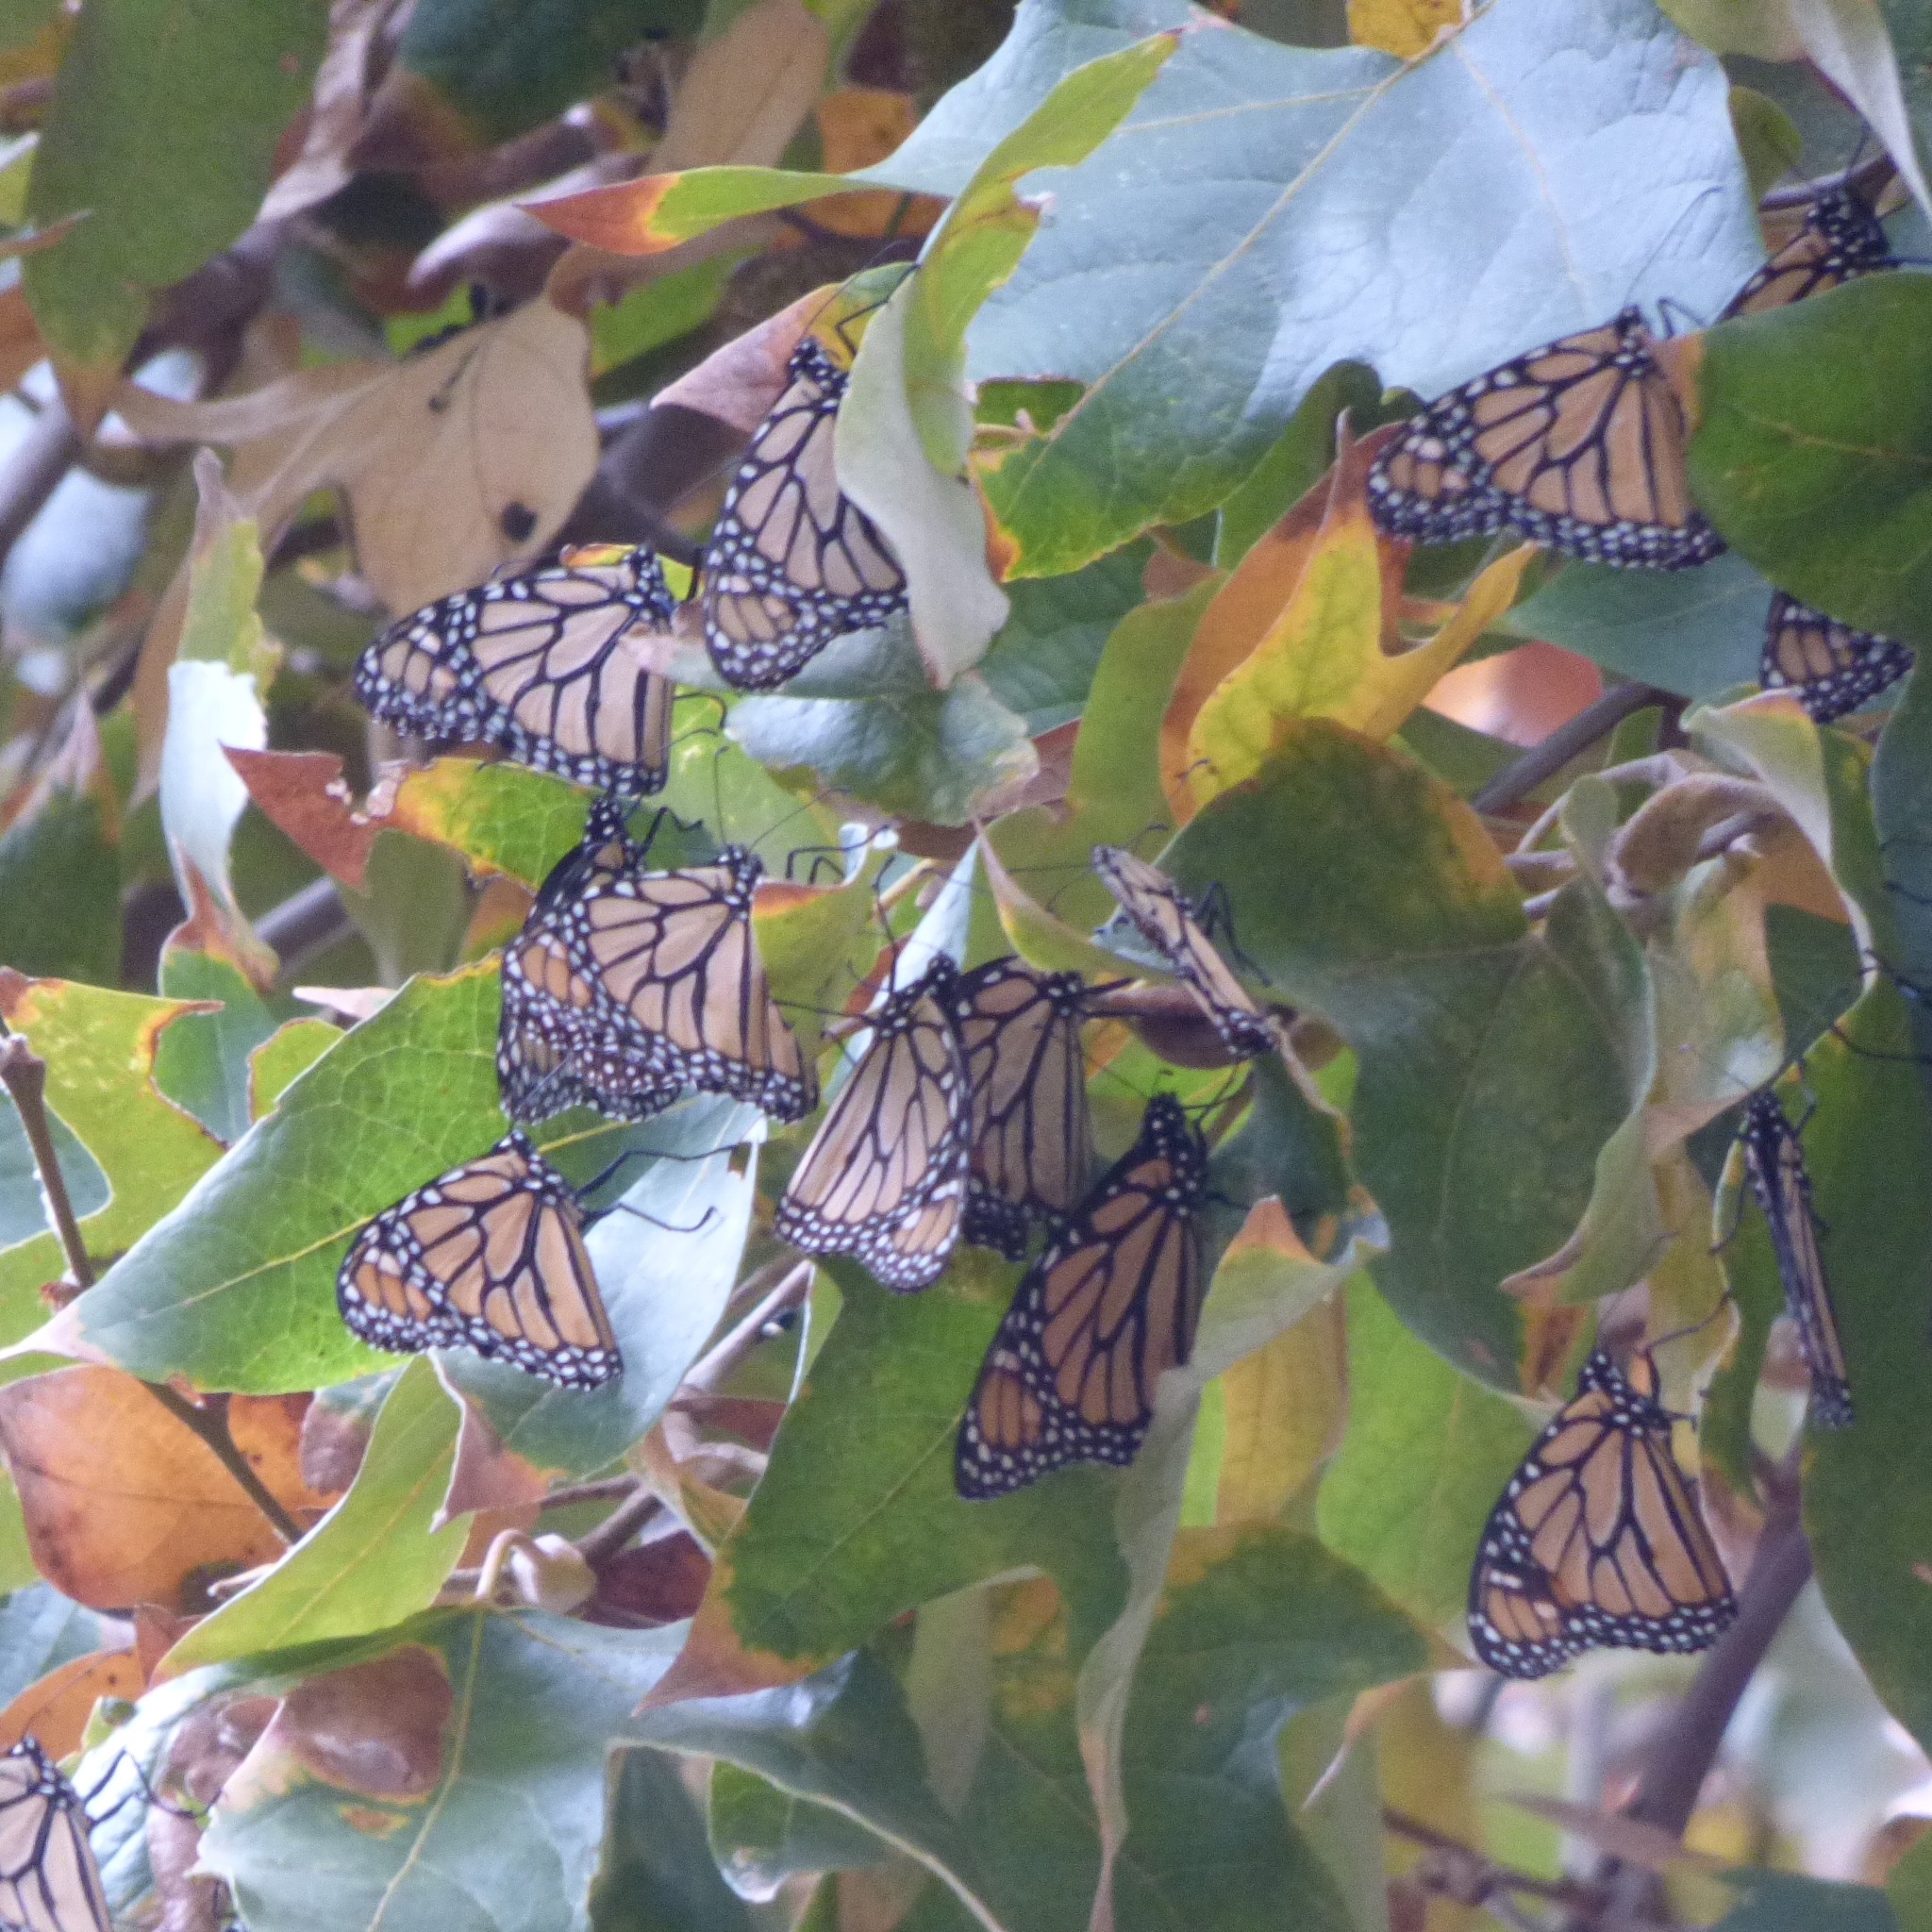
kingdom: Animalia
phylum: Arthropoda
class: Insecta
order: Lepidoptera
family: Nymphalidae
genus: Danaus
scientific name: Danaus plexippus
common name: Monarch
